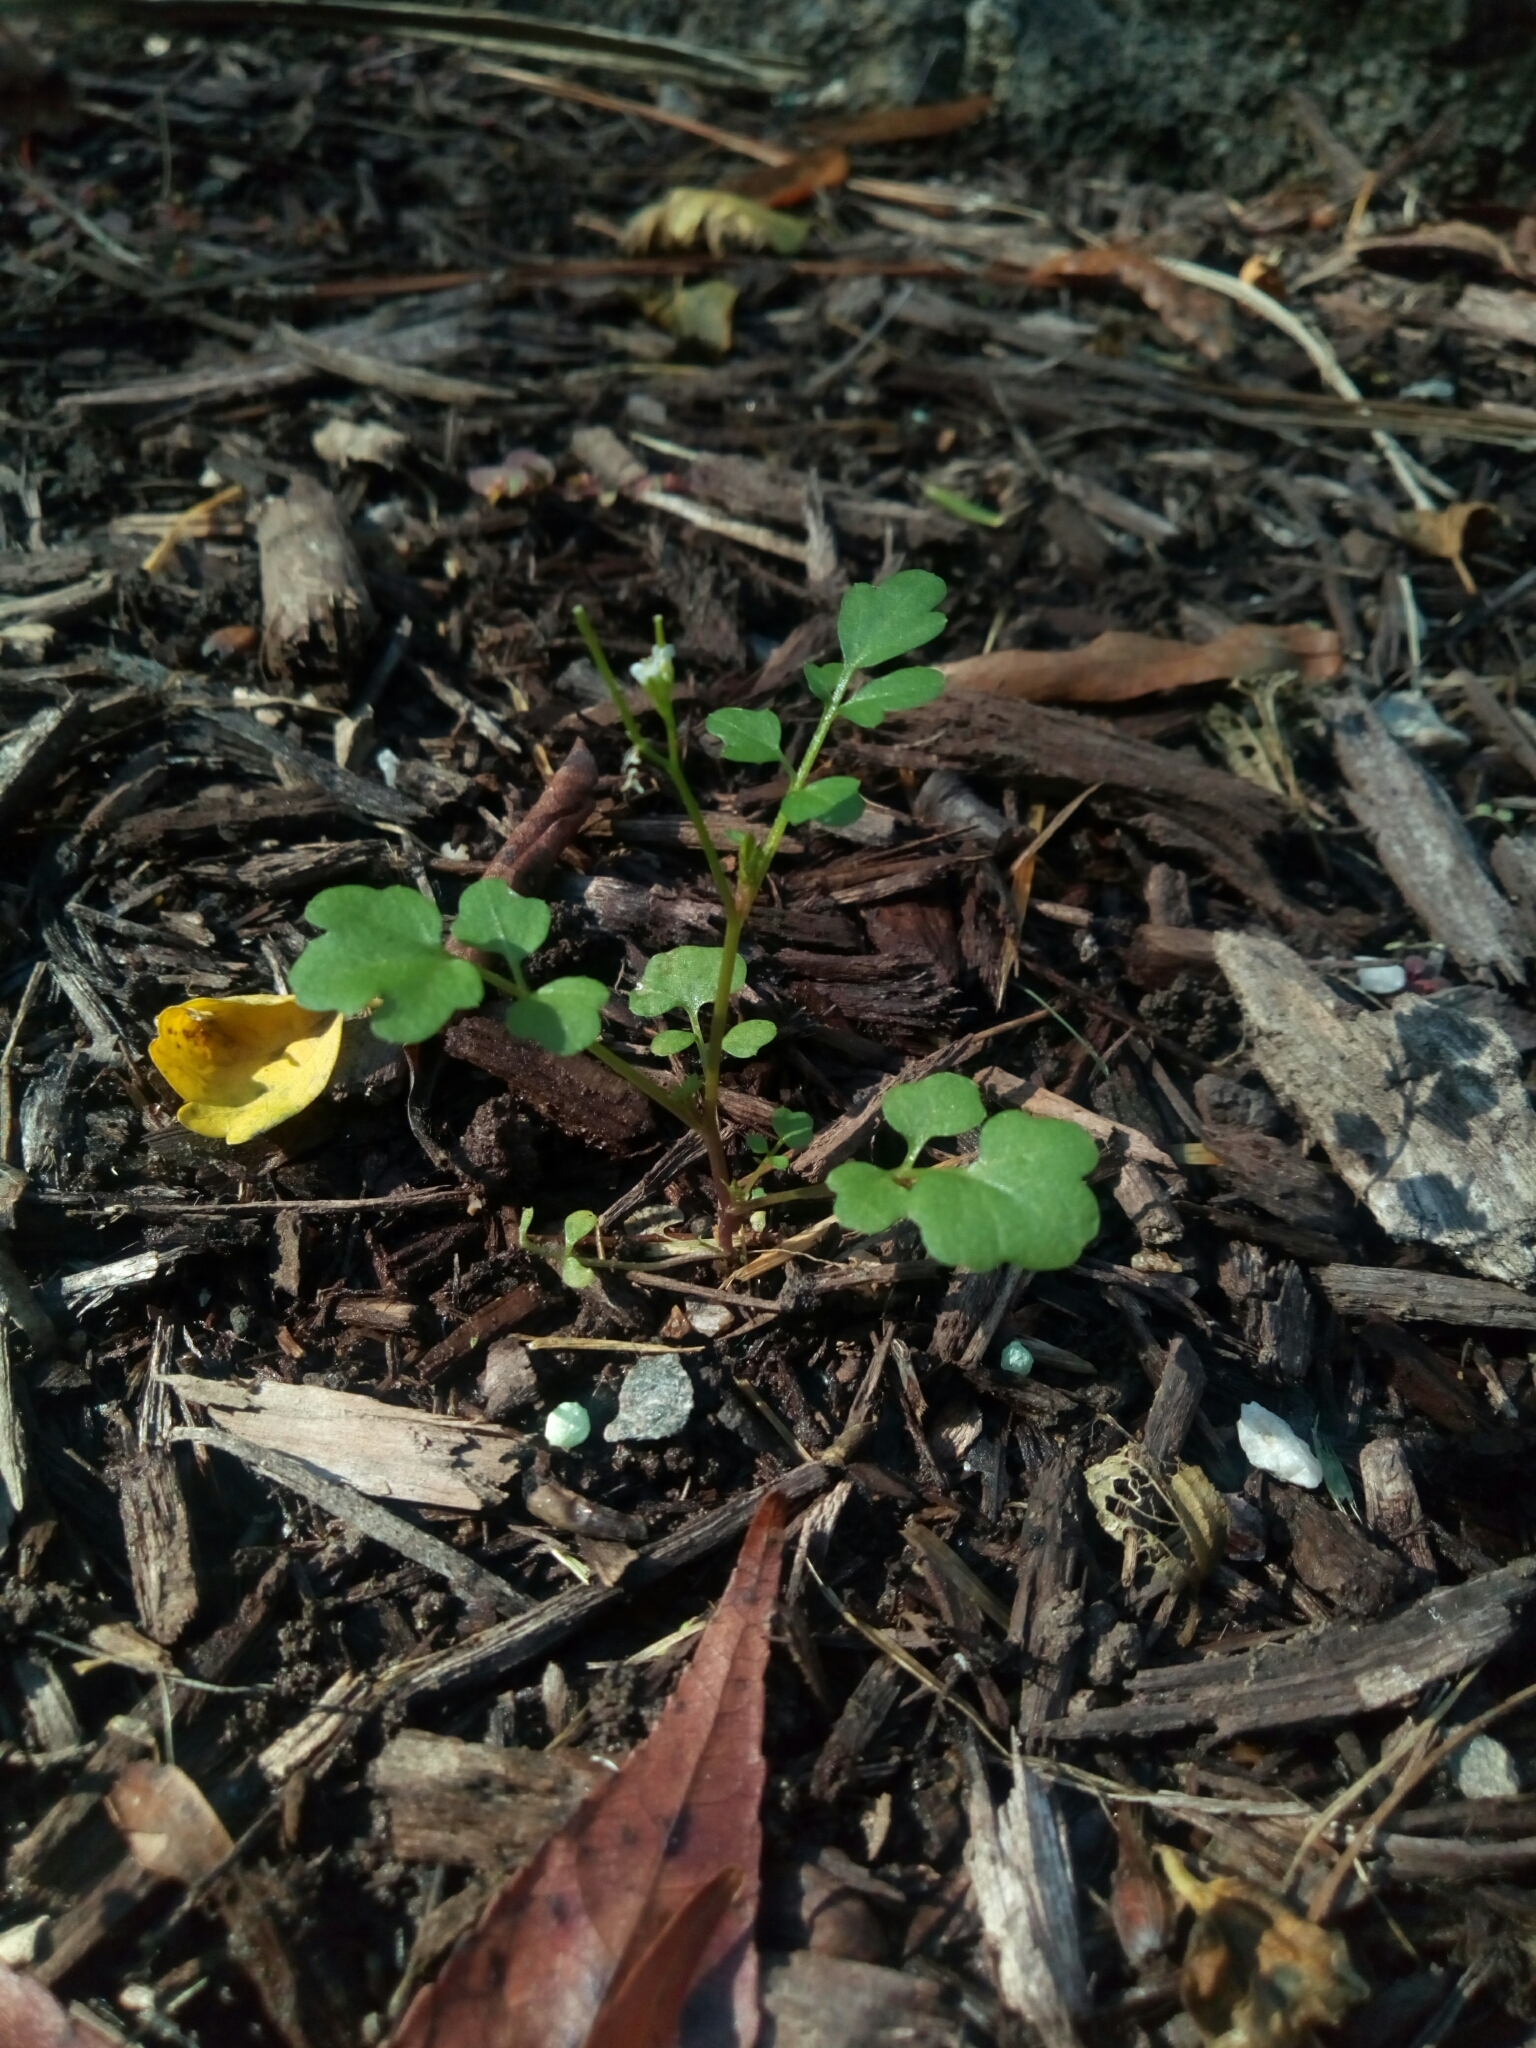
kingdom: Plantae
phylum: Tracheophyta
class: Magnoliopsida
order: Brassicales
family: Brassicaceae
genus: Cardamine
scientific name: Cardamine occulta
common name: Asian wavy bittercress
